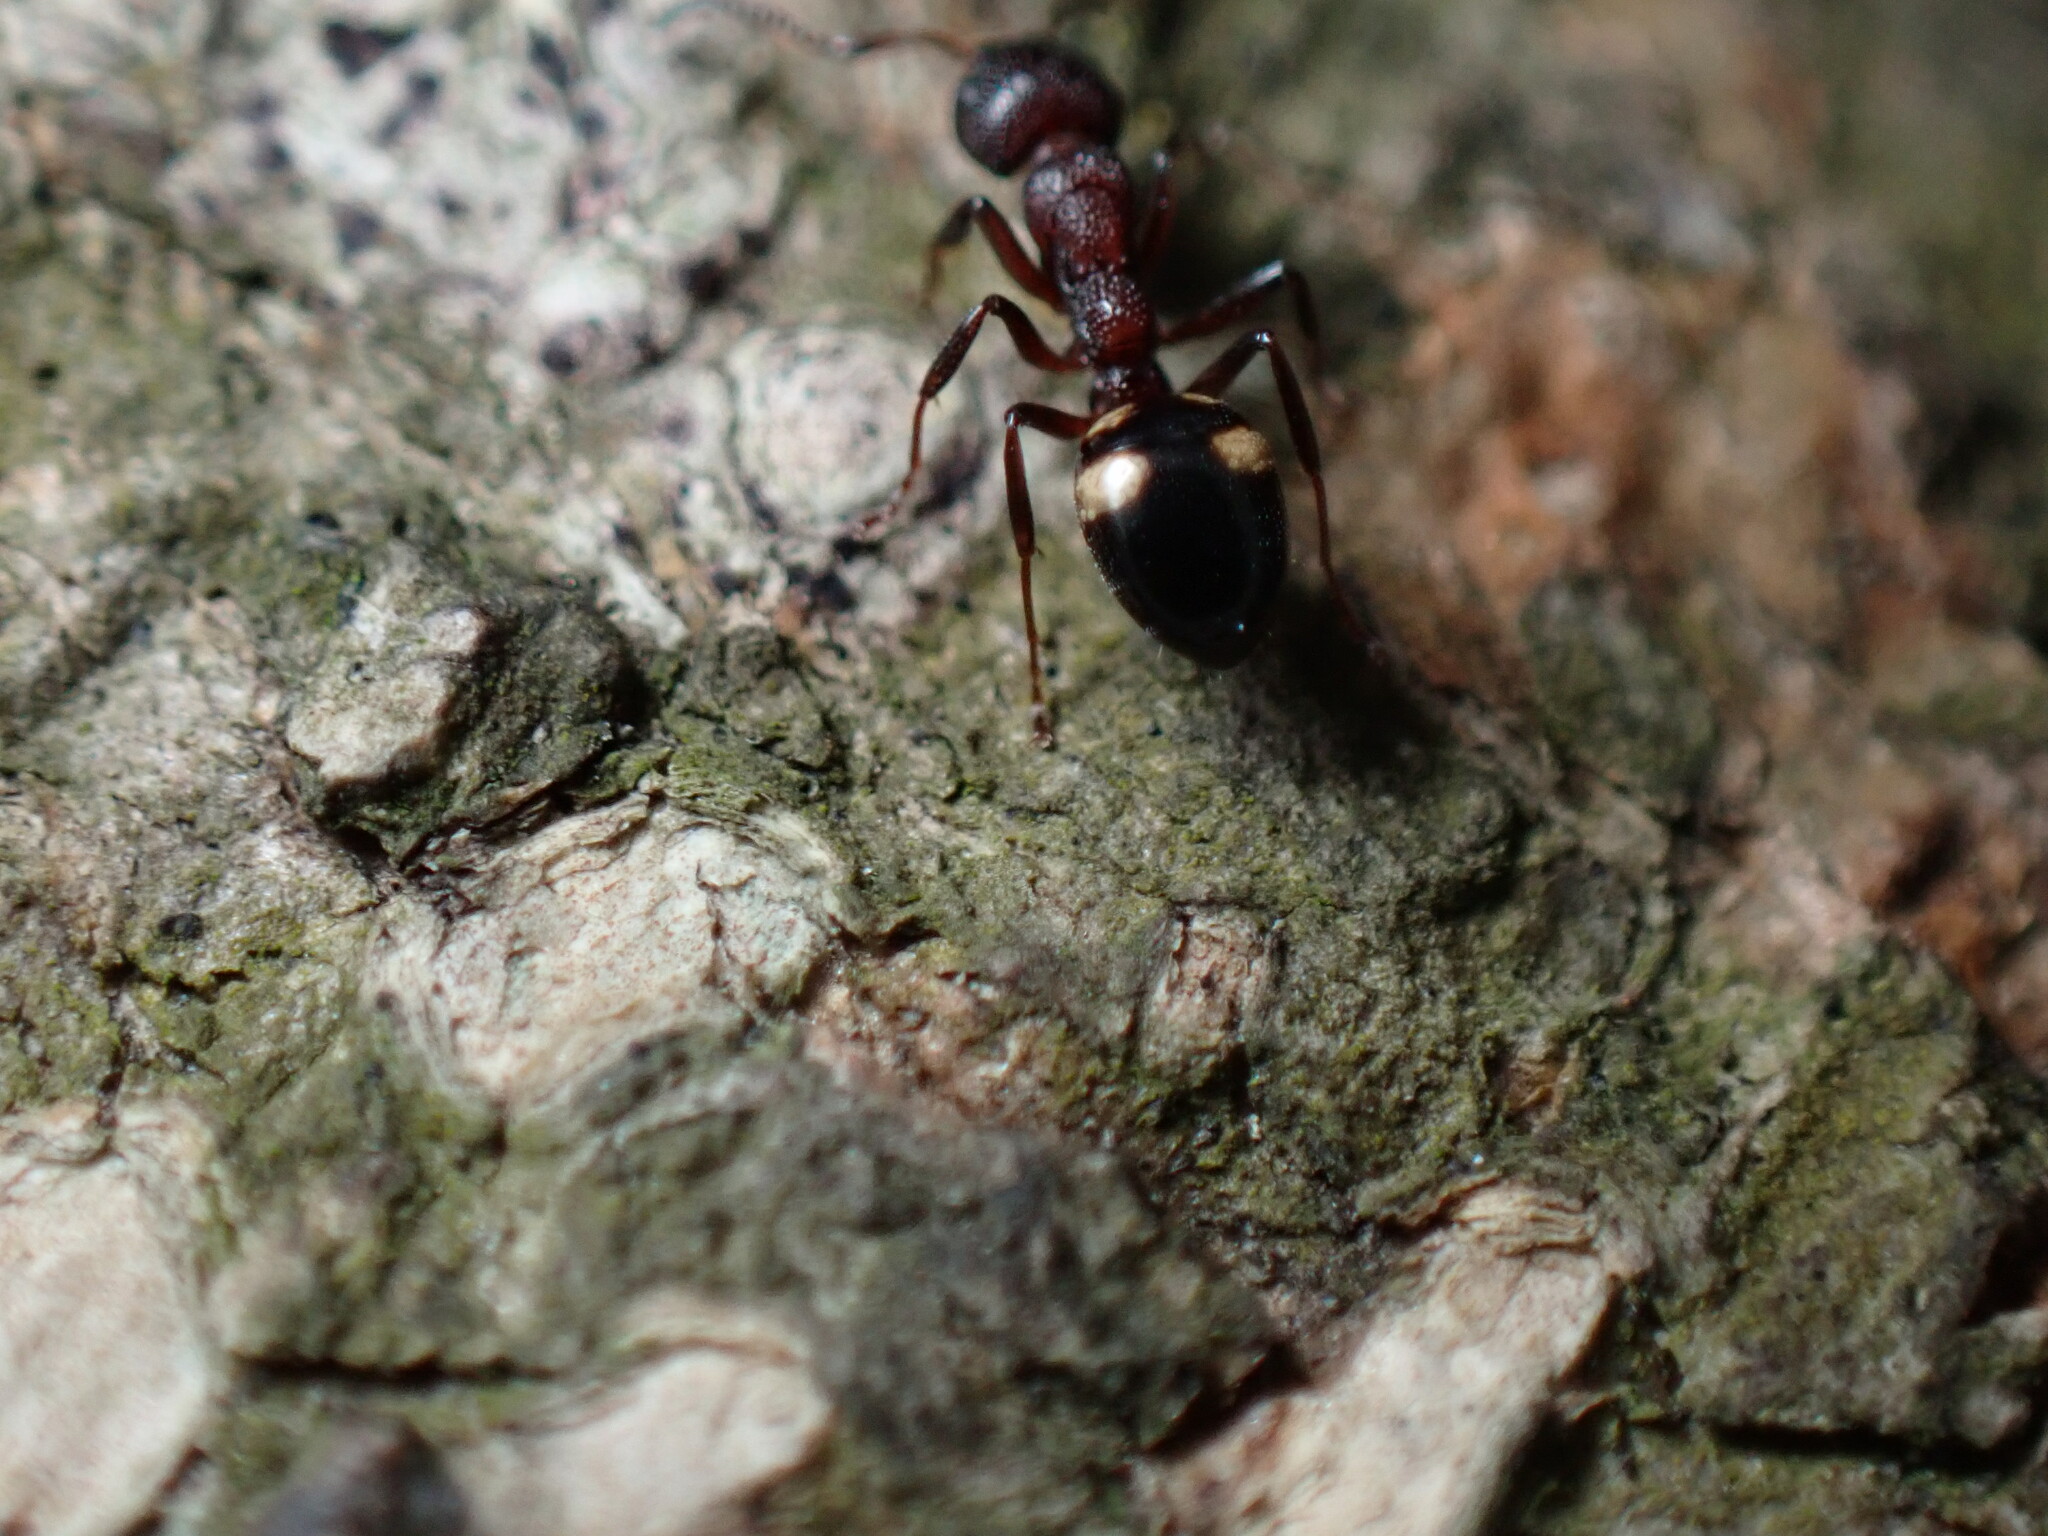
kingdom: Animalia
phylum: Arthropoda
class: Insecta
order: Hymenoptera
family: Formicidae
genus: Dolichoderus
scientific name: Dolichoderus sibiricus
